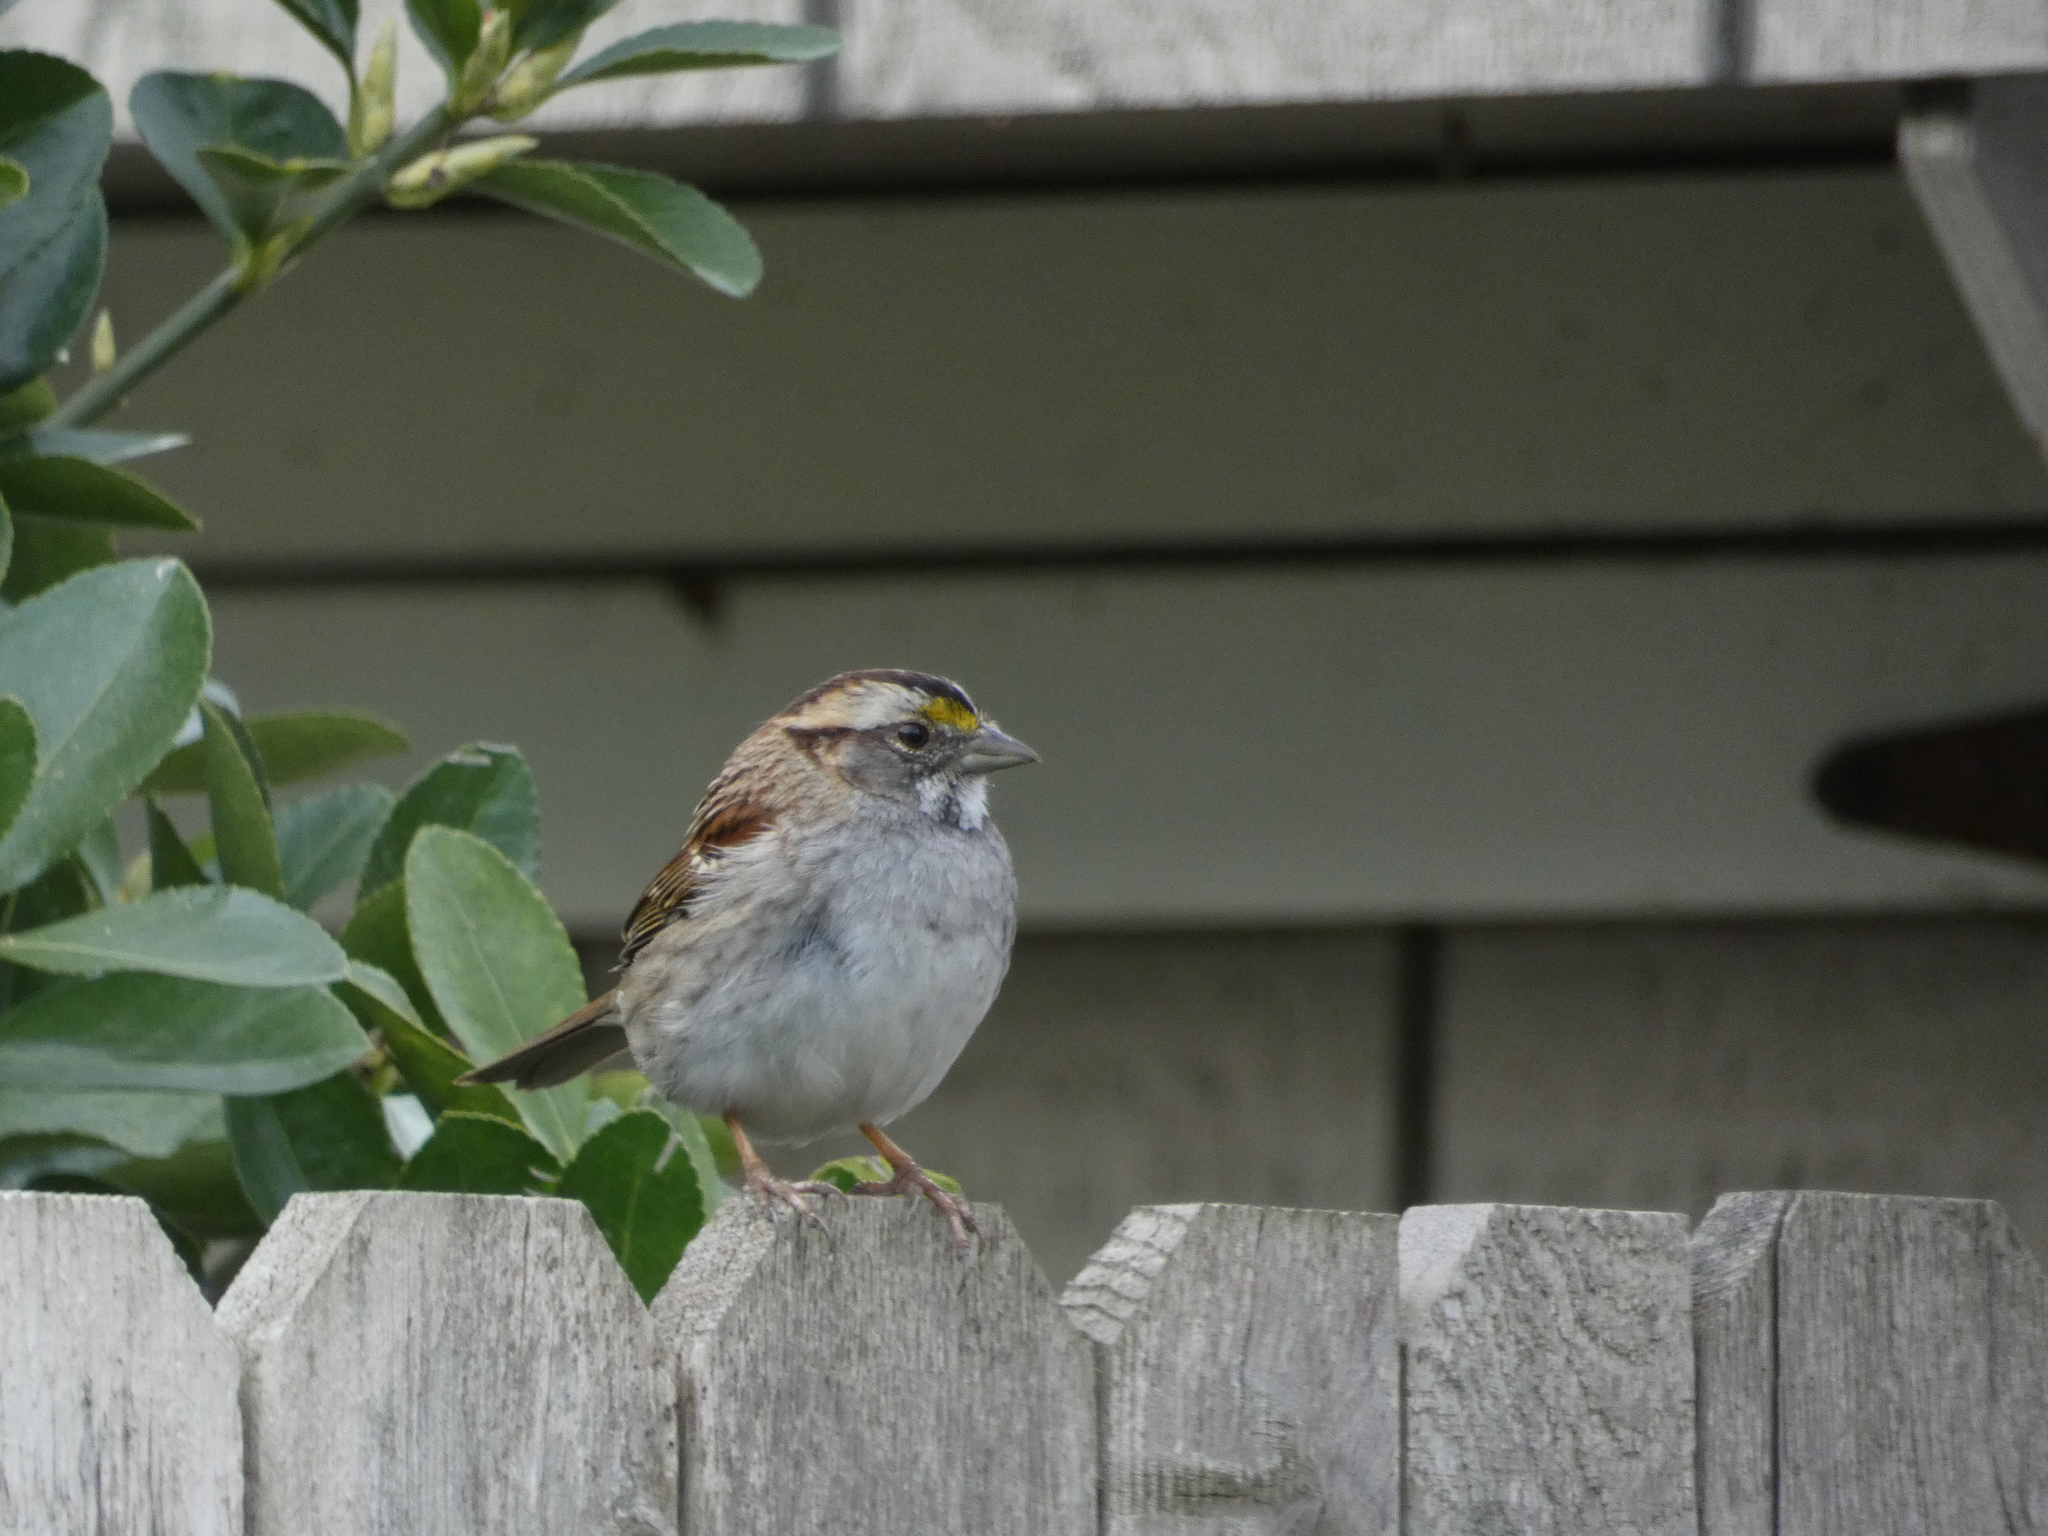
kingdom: Animalia
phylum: Chordata
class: Aves
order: Passeriformes
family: Passerellidae
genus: Zonotrichia
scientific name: Zonotrichia albicollis
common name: White-throated sparrow
